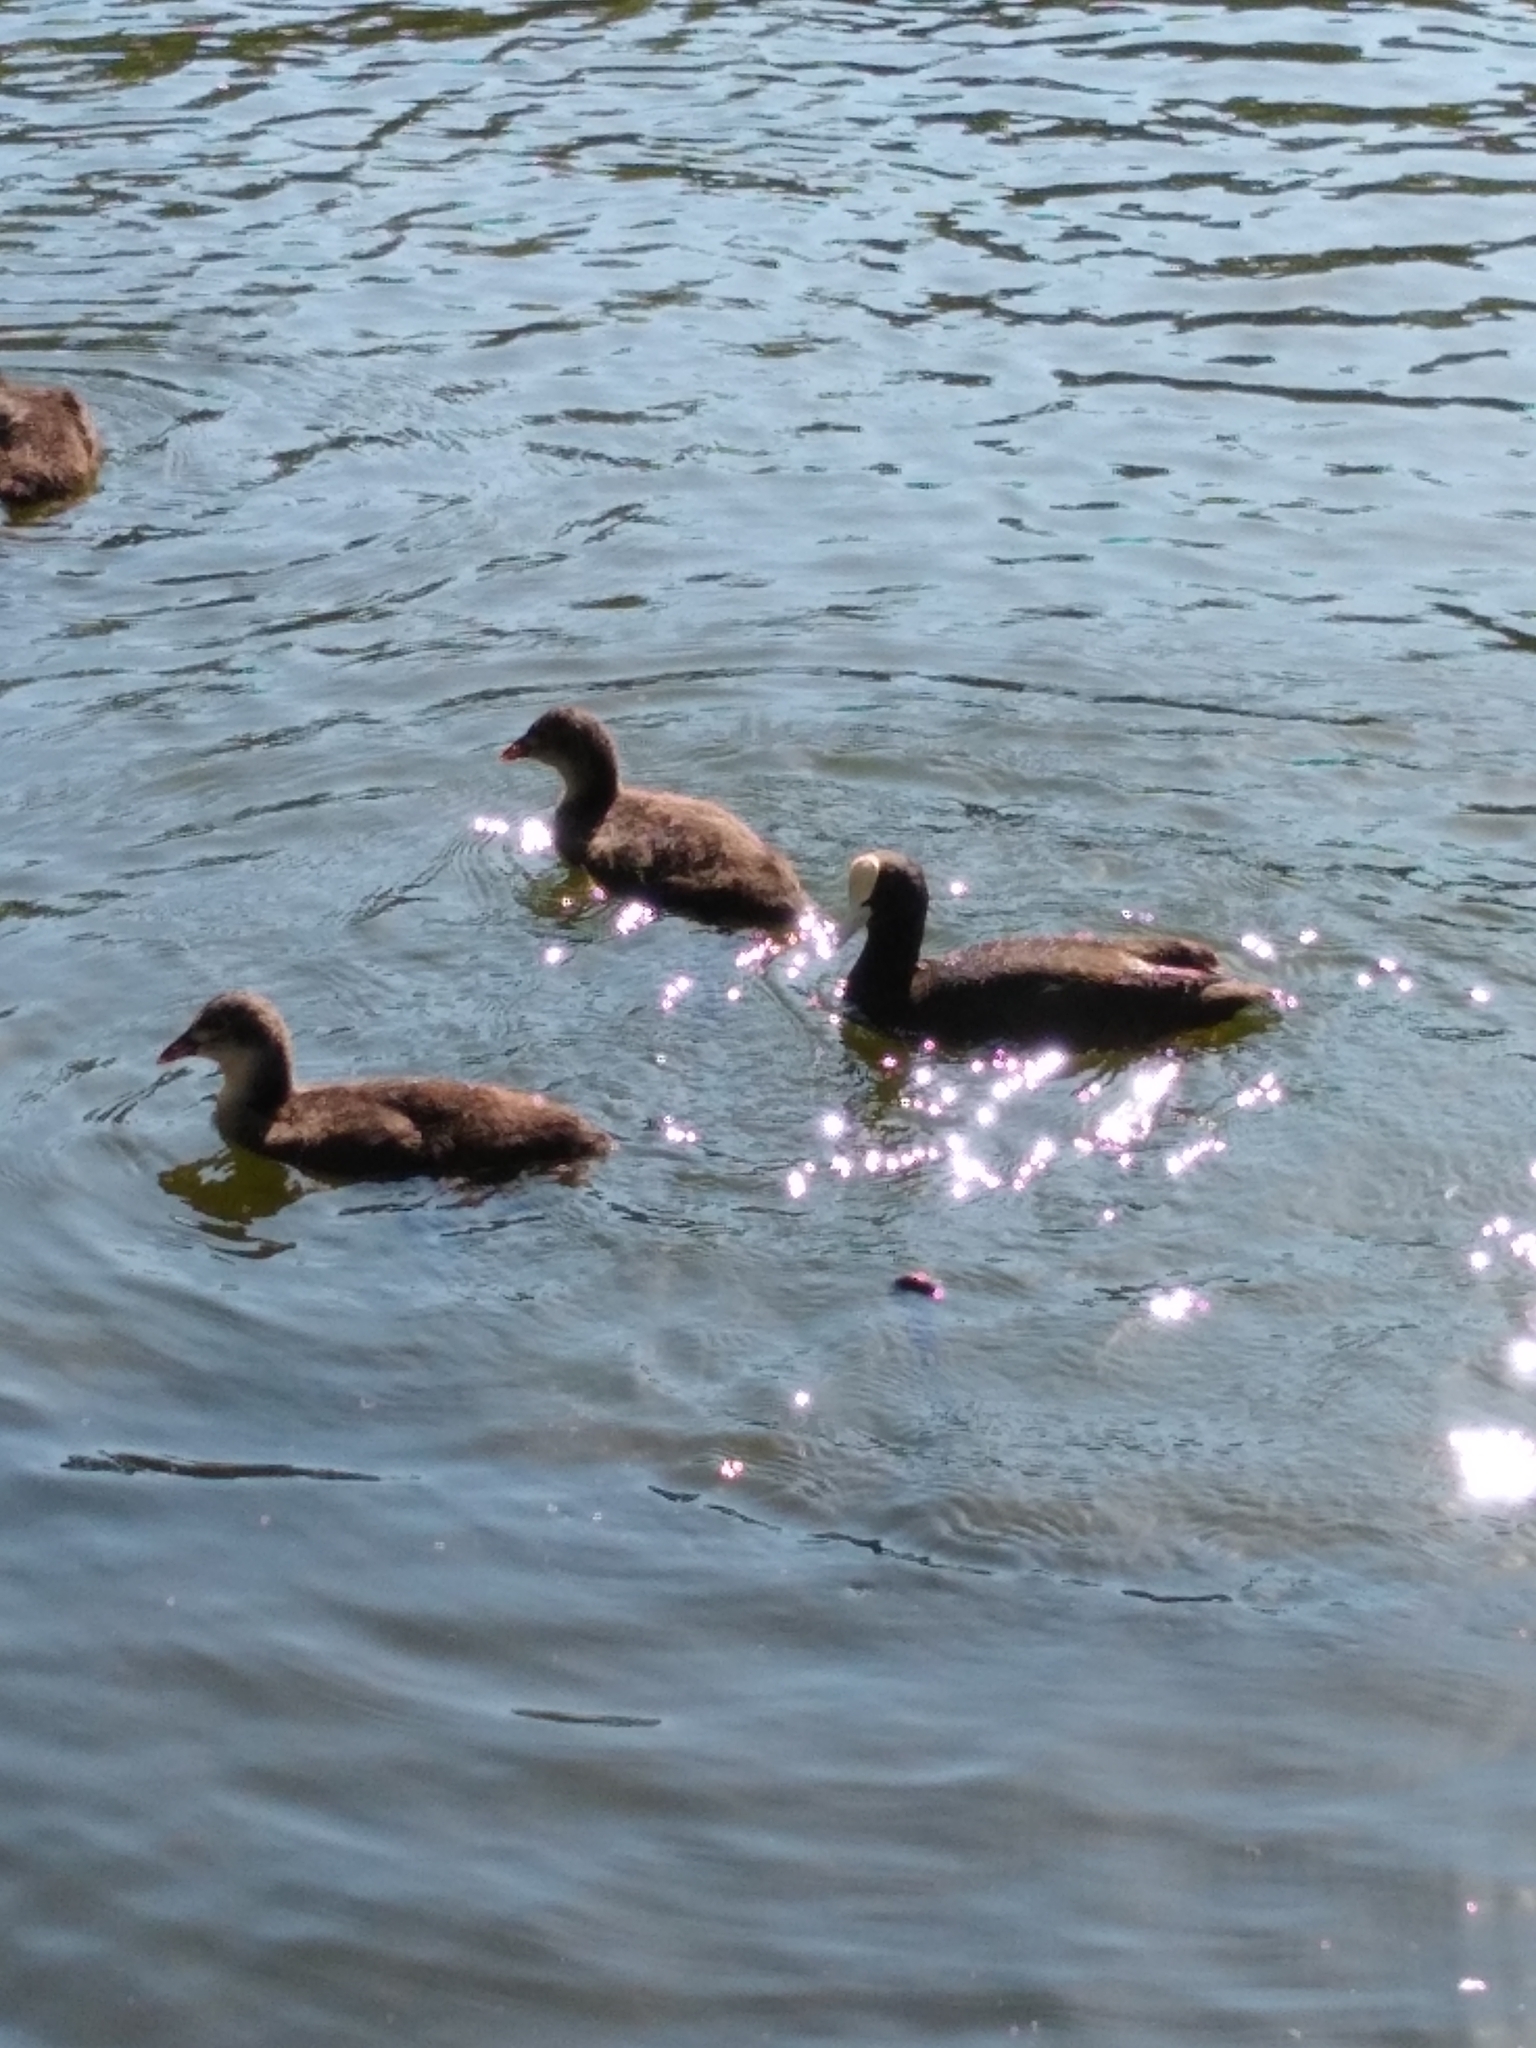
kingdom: Animalia
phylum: Chordata
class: Aves
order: Gruiformes
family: Rallidae
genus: Fulica
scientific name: Fulica atra
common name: Eurasian coot
